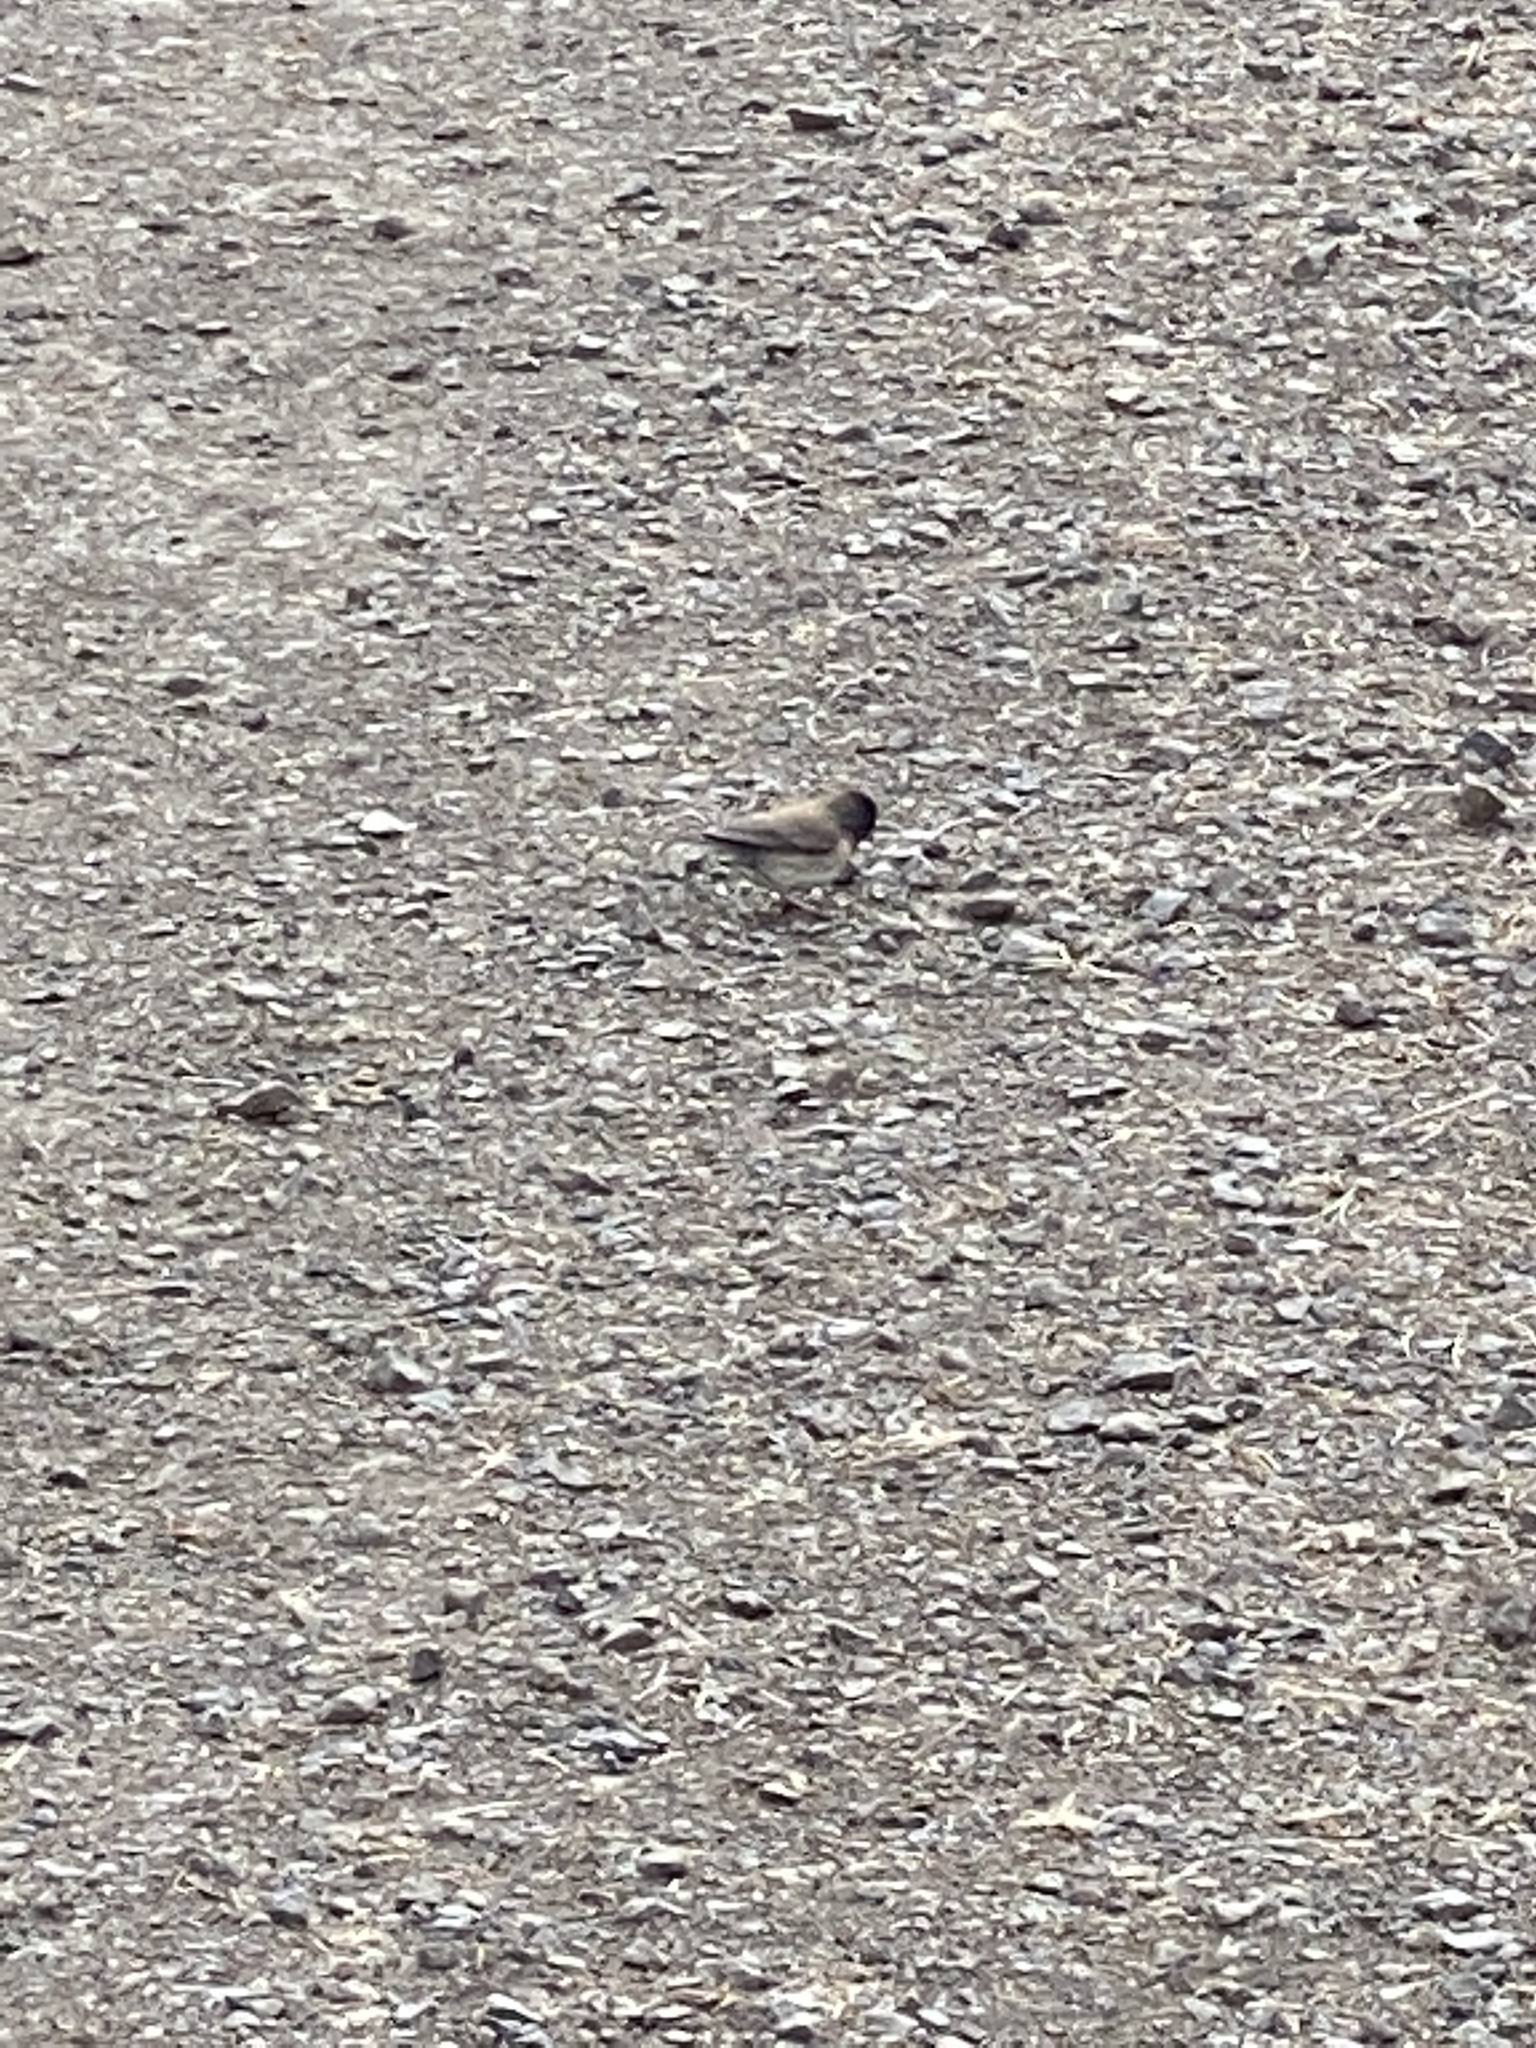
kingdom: Animalia
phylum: Chordata
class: Aves
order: Passeriformes
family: Passerellidae
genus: Junco
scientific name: Junco hyemalis
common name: Dark-eyed junco
